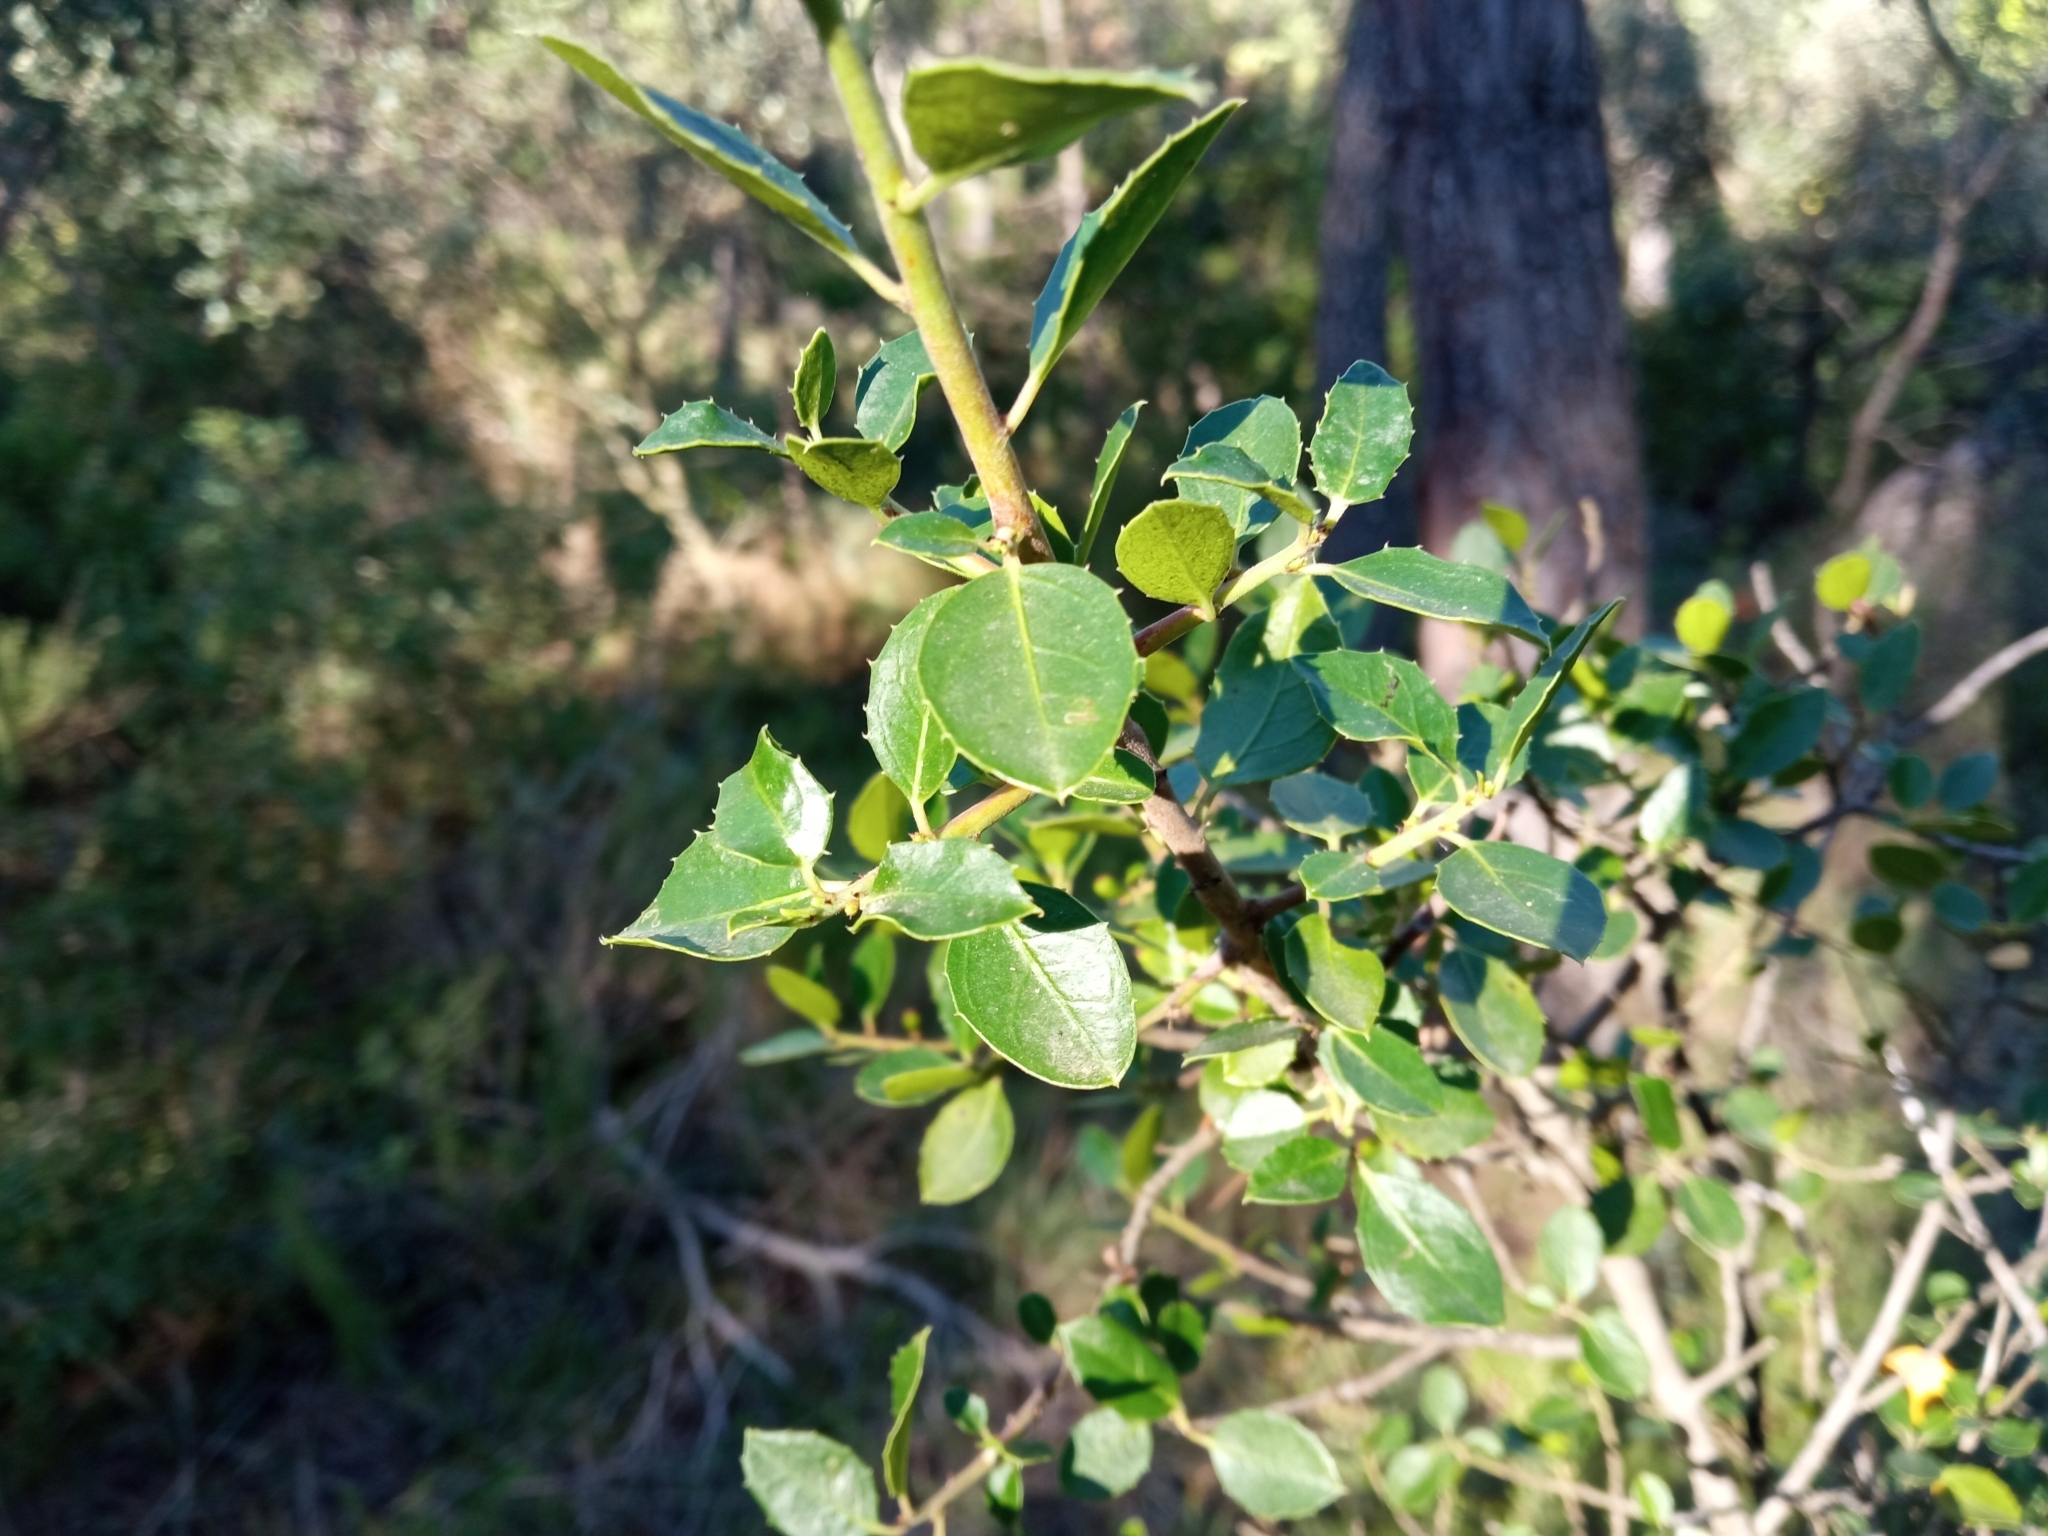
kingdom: Plantae
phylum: Tracheophyta
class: Magnoliopsida
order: Rosales
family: Rhamnaceae
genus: Rhamnus
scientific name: Rhamnus alaternus
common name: Mediterranean buckthorn
